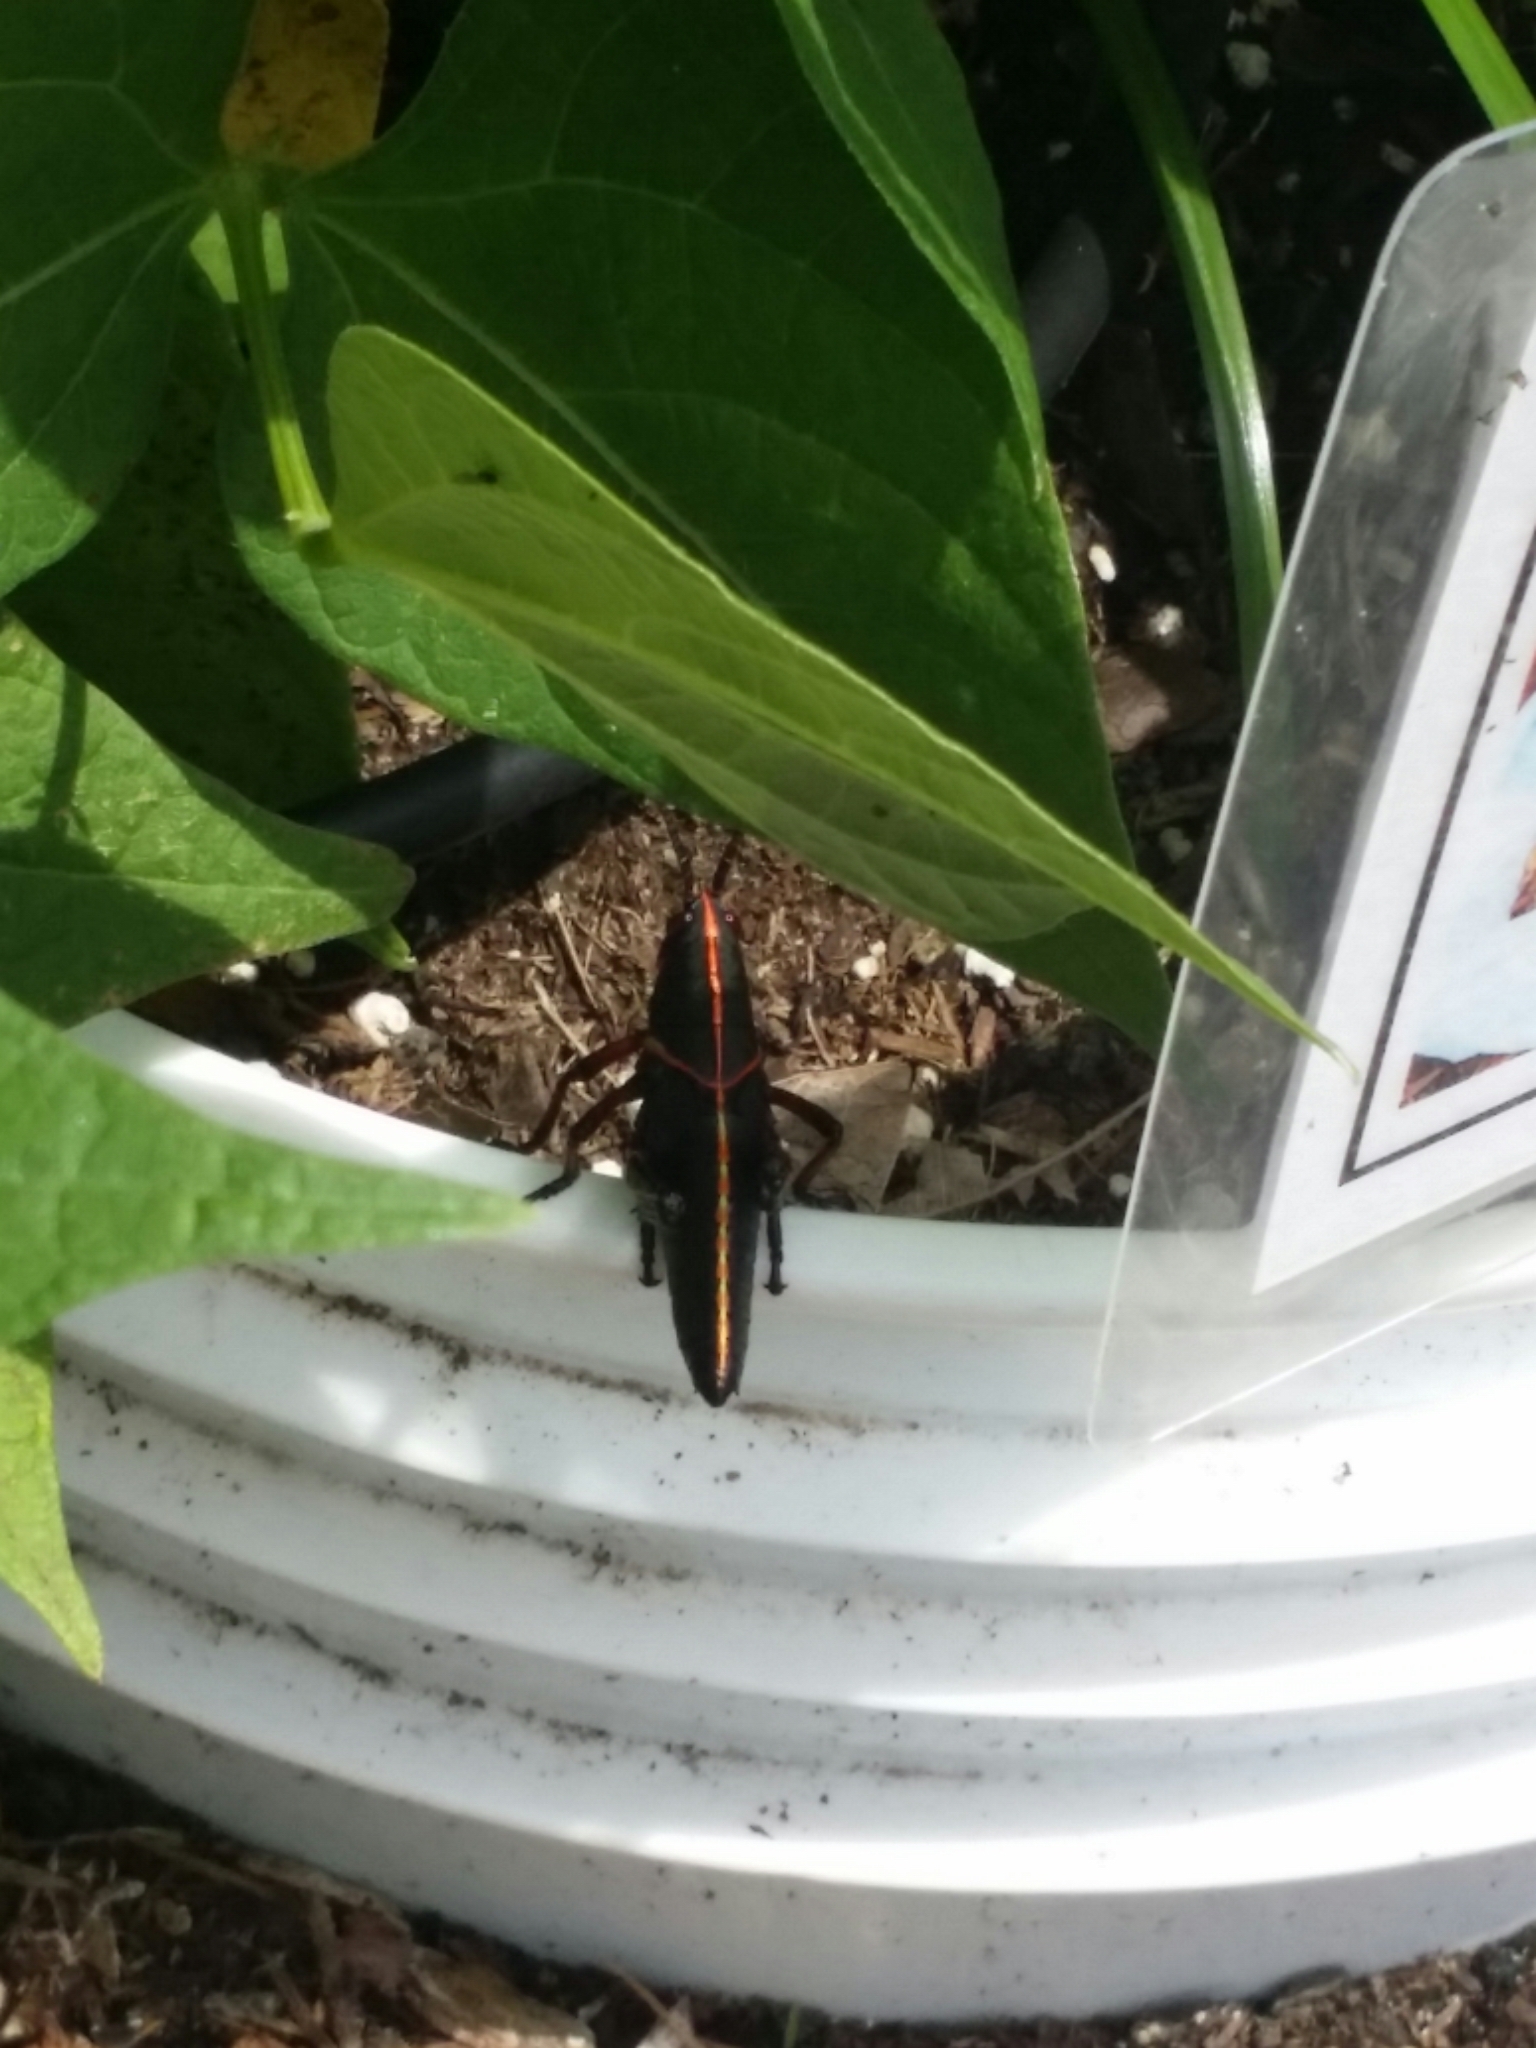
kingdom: Animalia
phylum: Arthropoda
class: Insecta
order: Orthoptera
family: Romaleidae
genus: Romalea
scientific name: Romalea microptera
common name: Eastern lubber grasshopper
